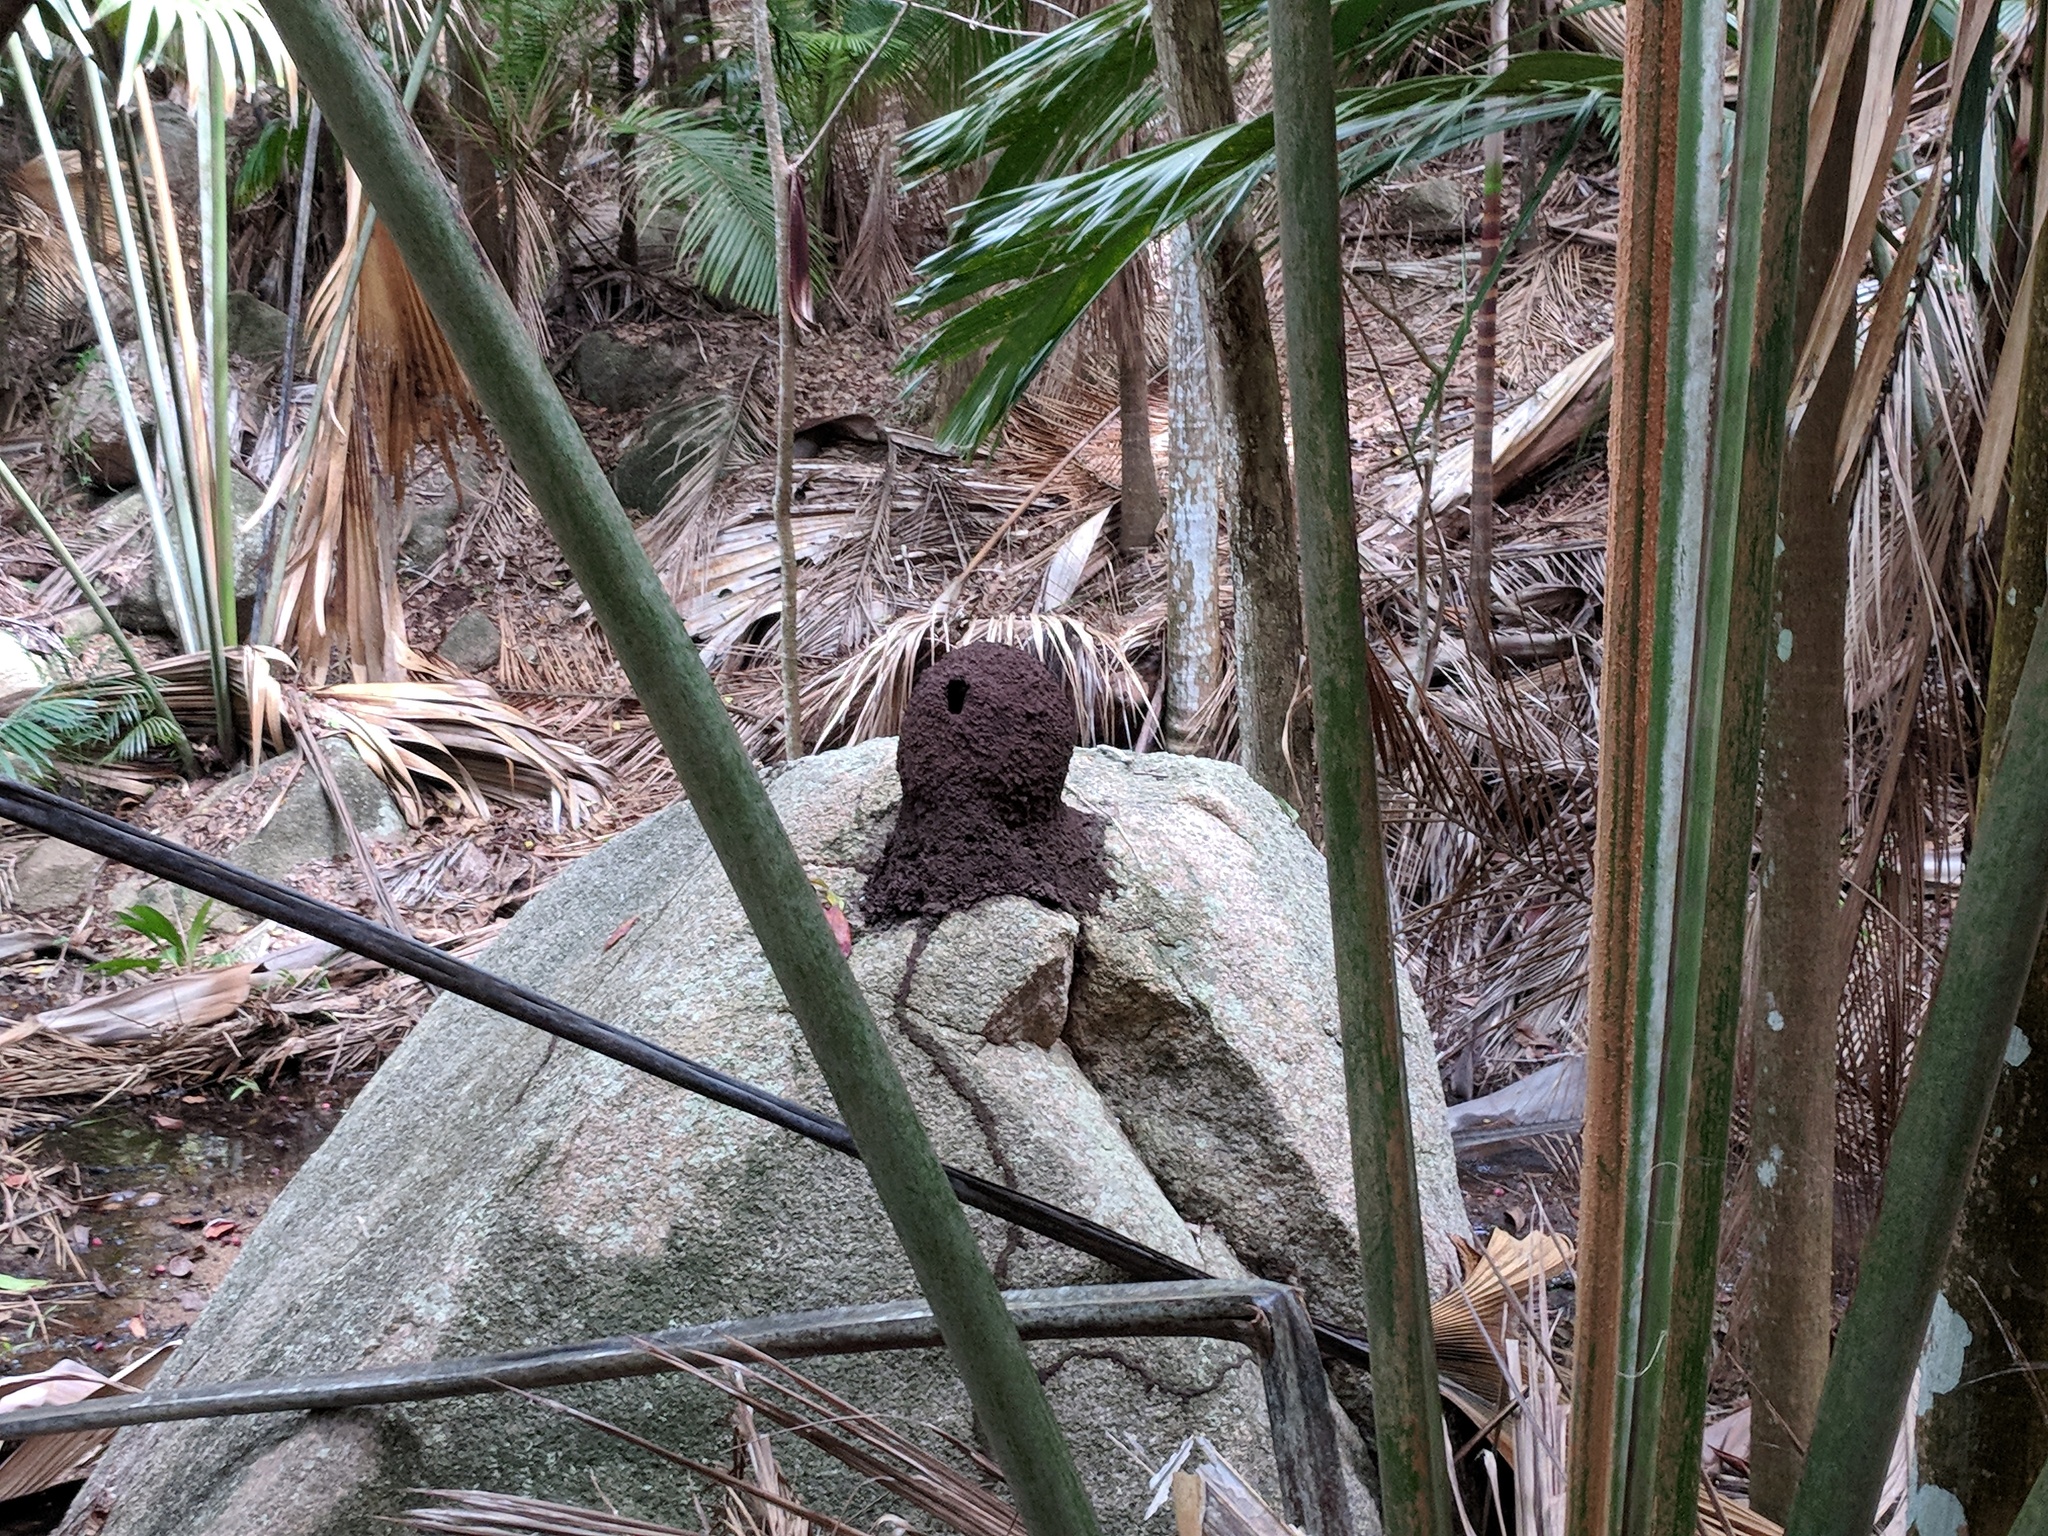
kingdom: Animalia
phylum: Arthropoda
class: Insecta
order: Blattodea
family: Termitidae
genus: Nasutitermes
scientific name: Nasutitermes maheensis
